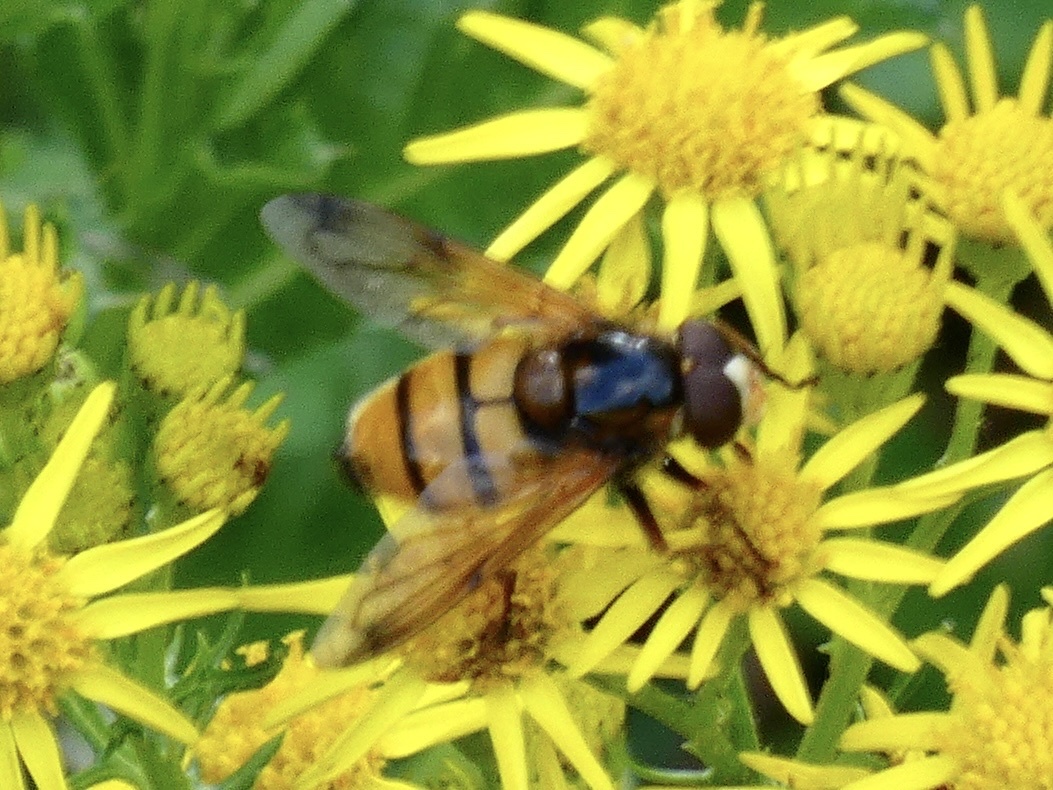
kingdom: Animalia
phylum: Arthropoda
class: Insecta
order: Diptera
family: Syrphidae
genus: Volucella
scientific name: Volucella inanis
